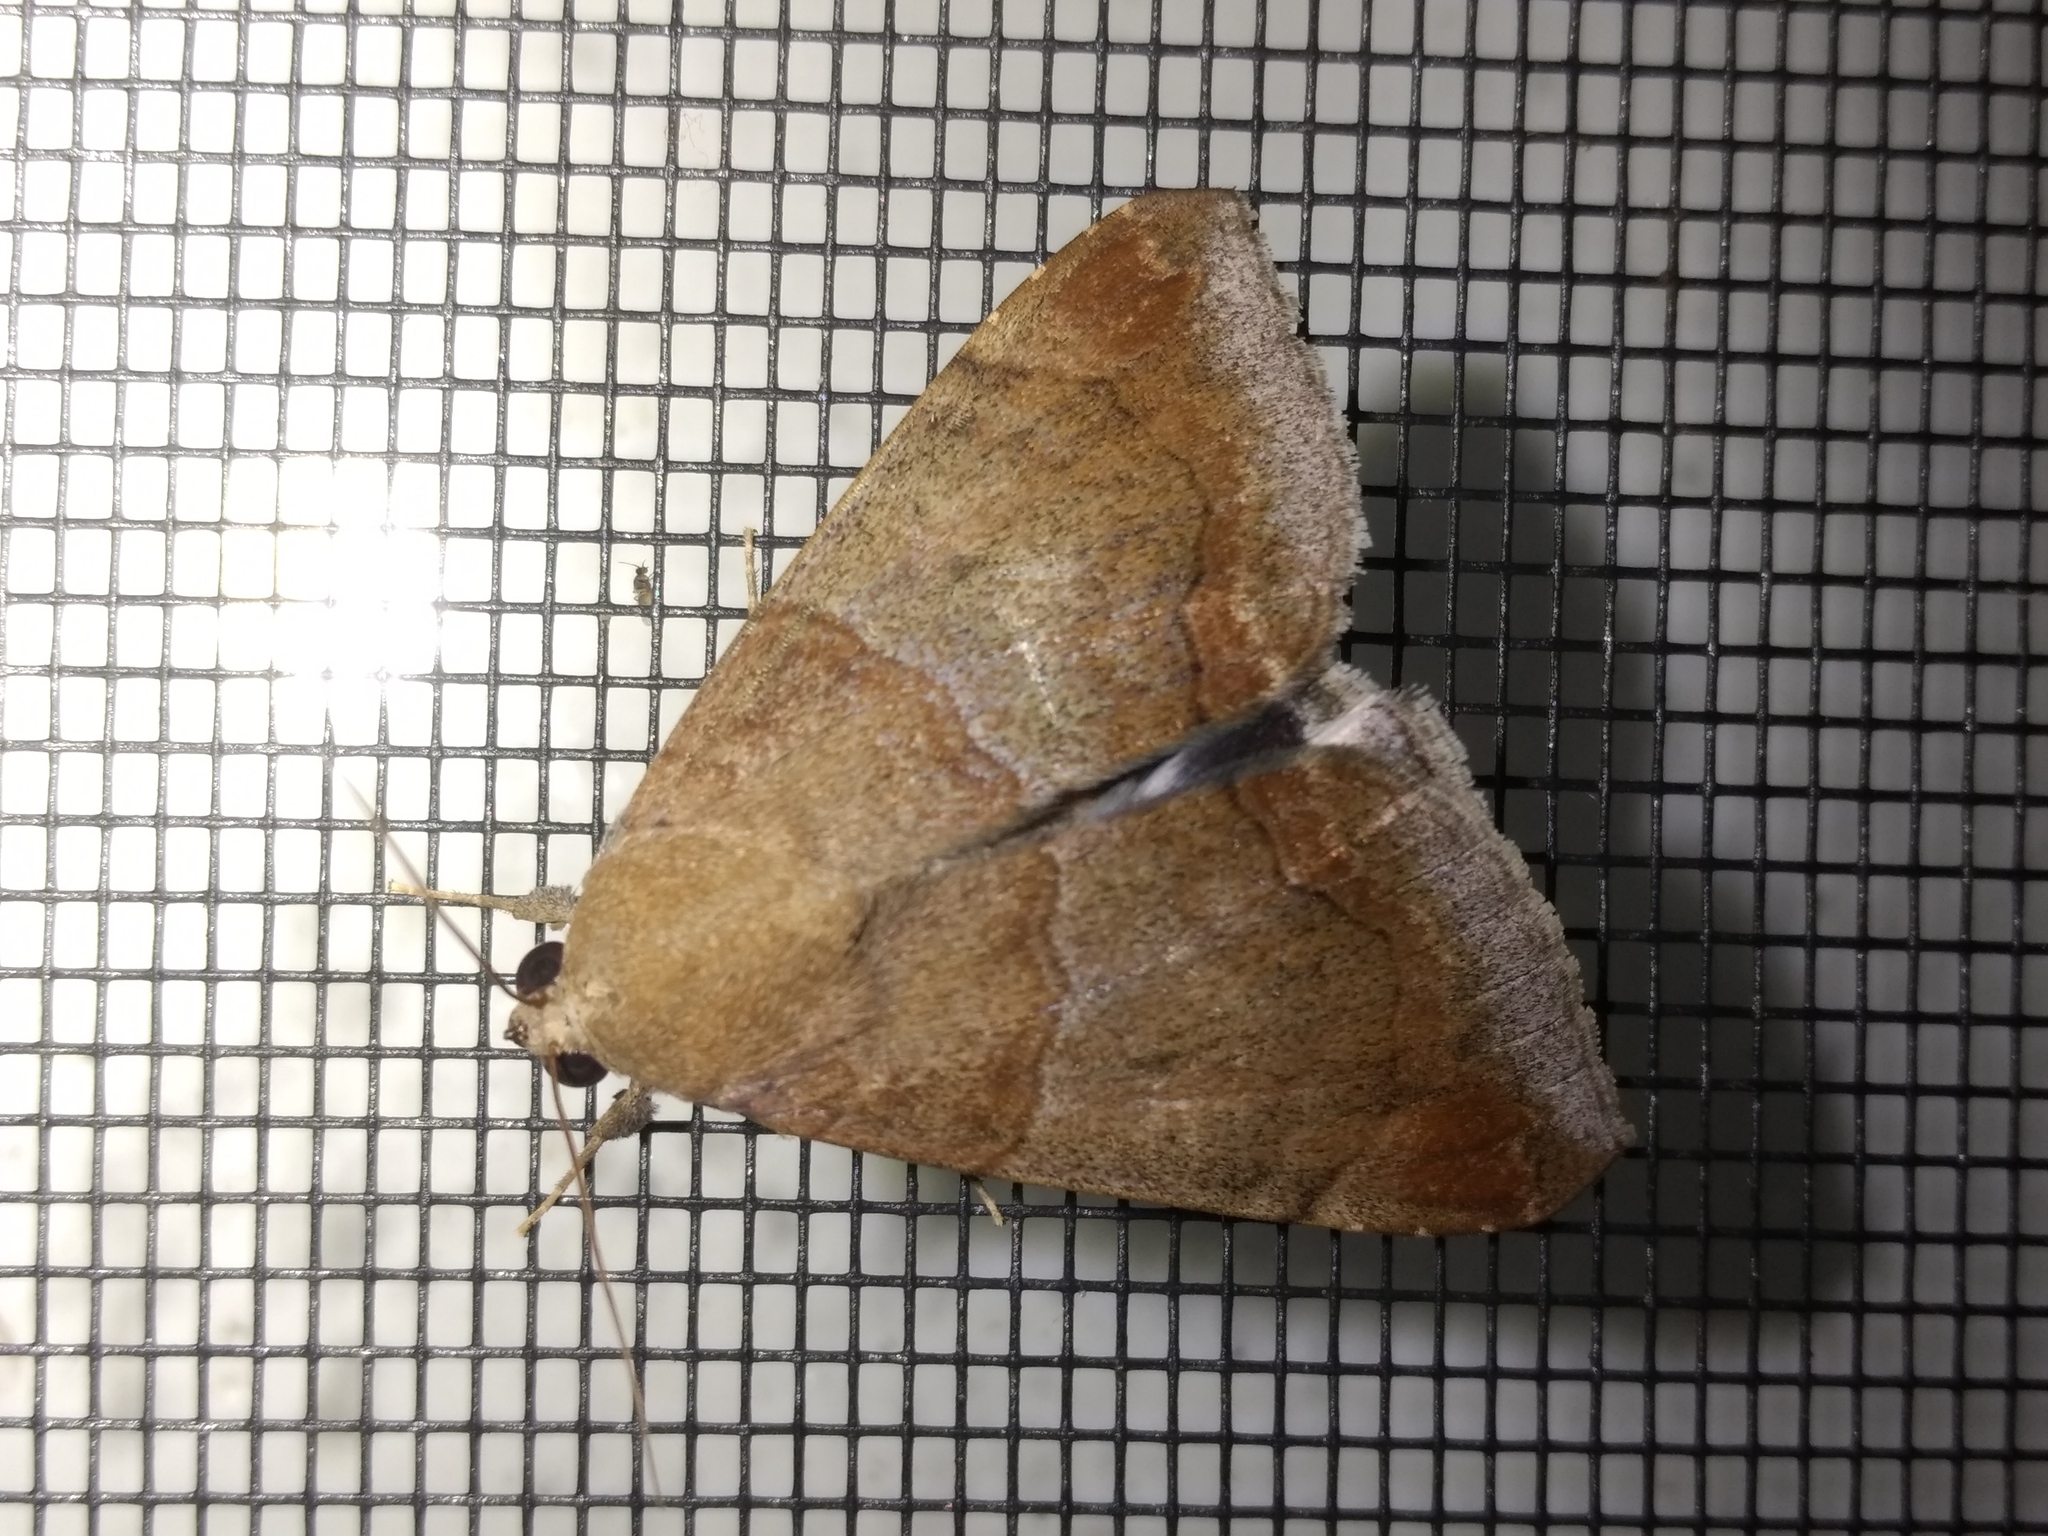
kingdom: Animalia
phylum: Arthropoda
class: Insecta
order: Lepidoptera
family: Erebidae
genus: Achaea
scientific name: Achaea janata
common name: Croton caterpillar
